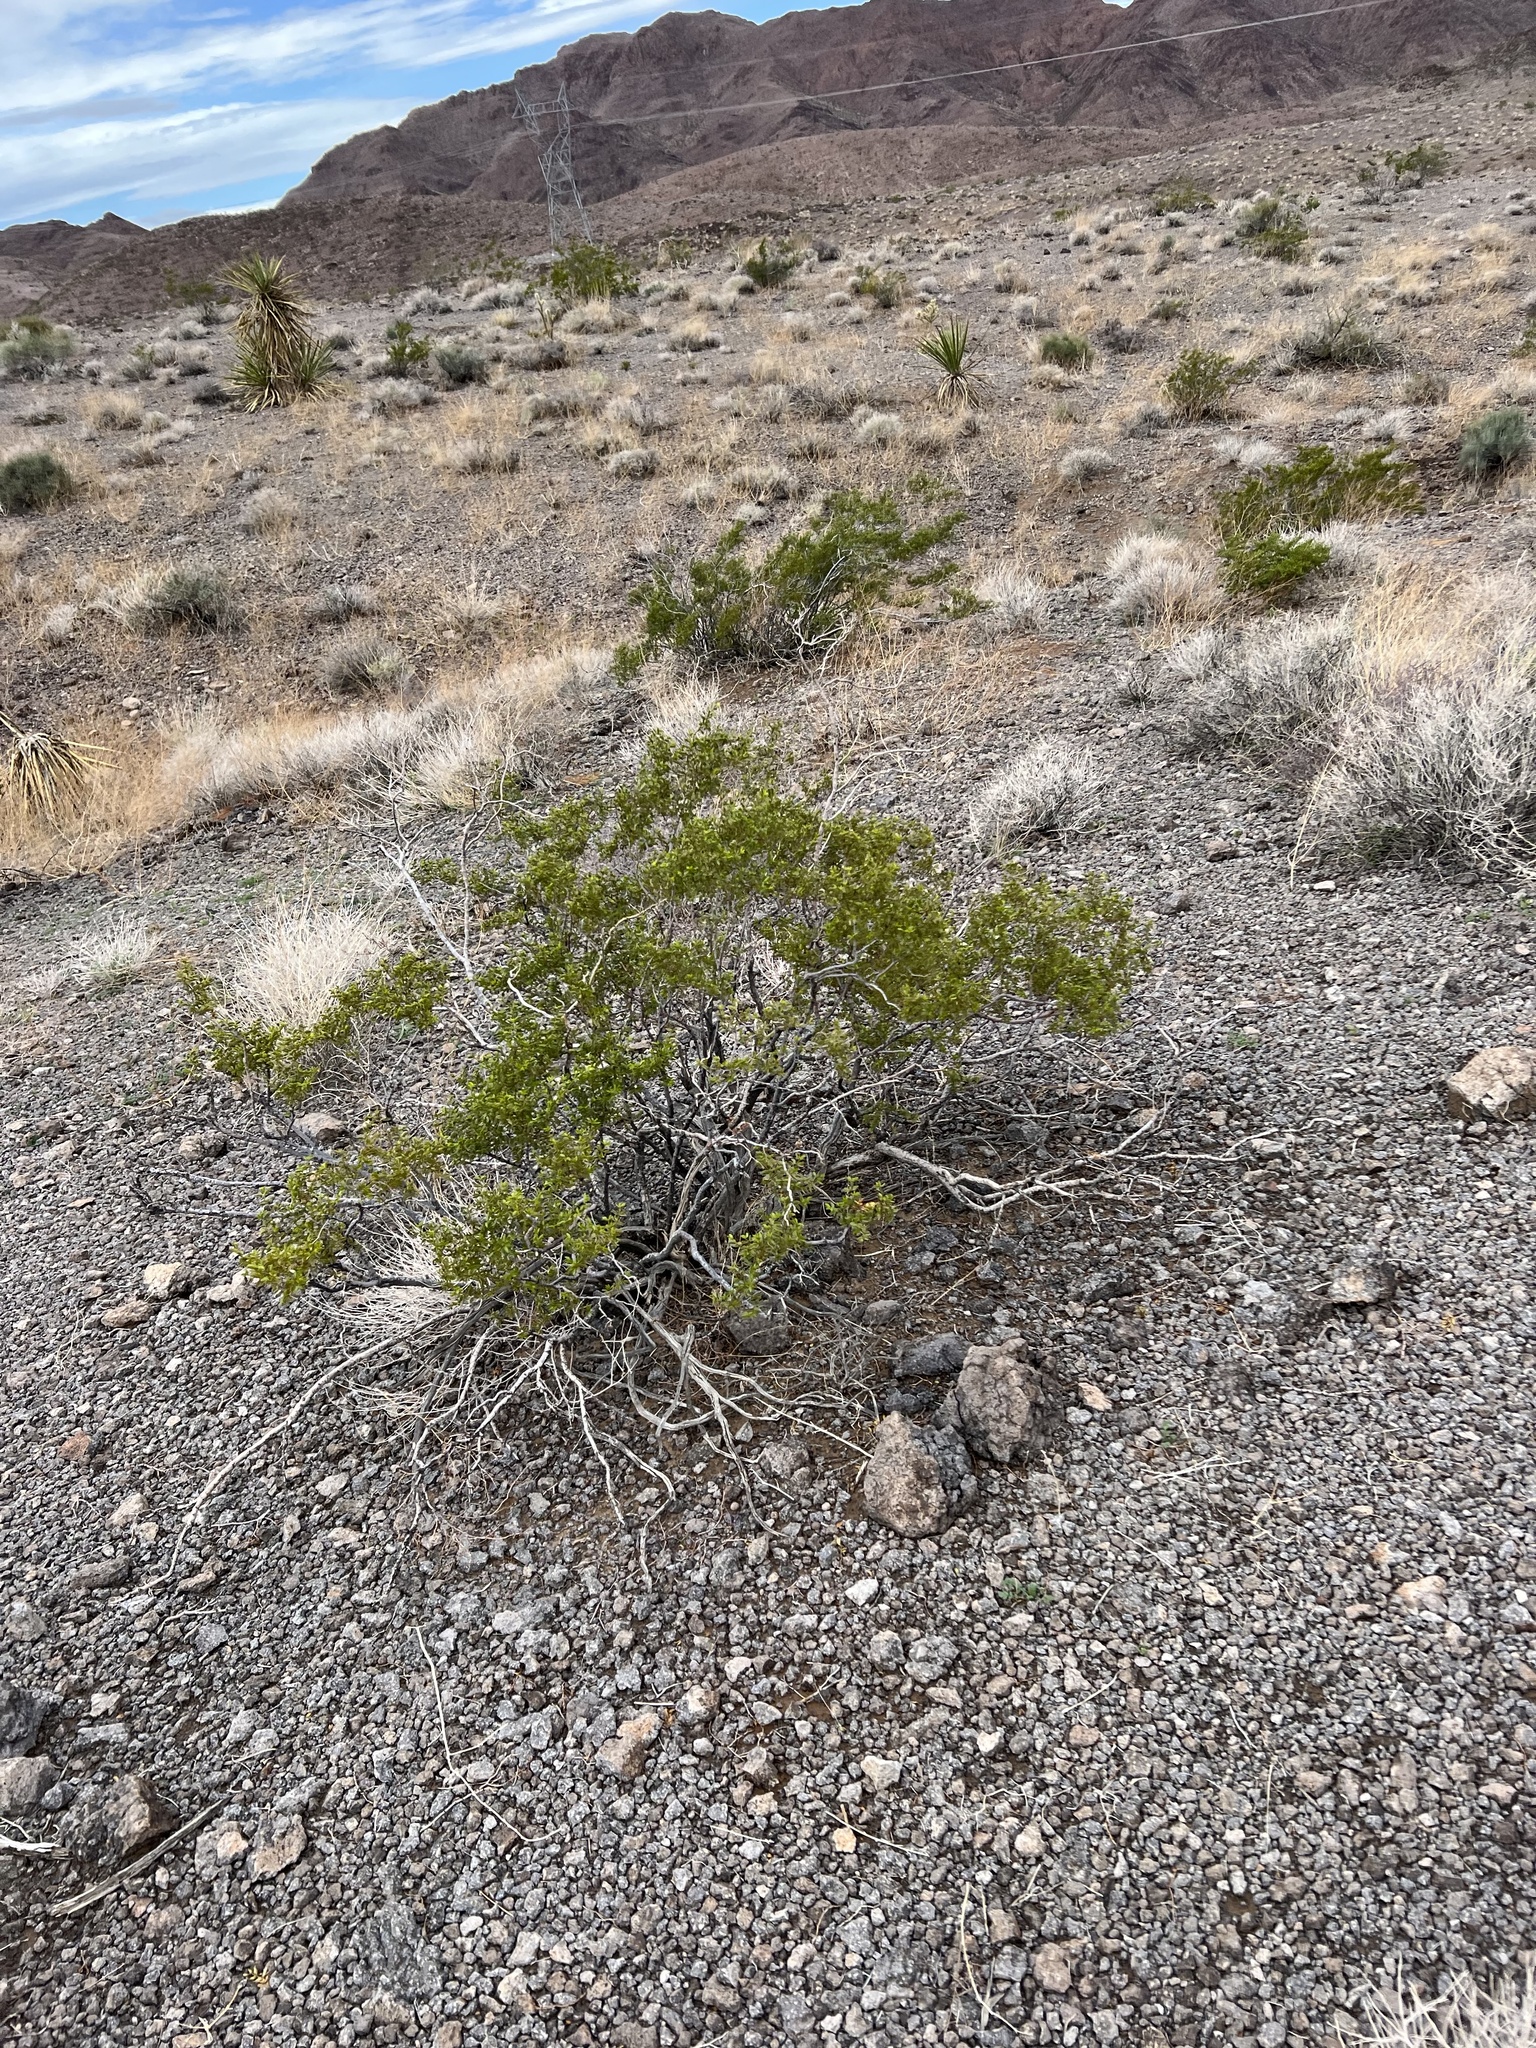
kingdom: Plantae
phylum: Tracheophyta
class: Magnoliopsida
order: Zygophyllales
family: Zygophyllaceae
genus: Larrea
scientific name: Larrea tridentata
